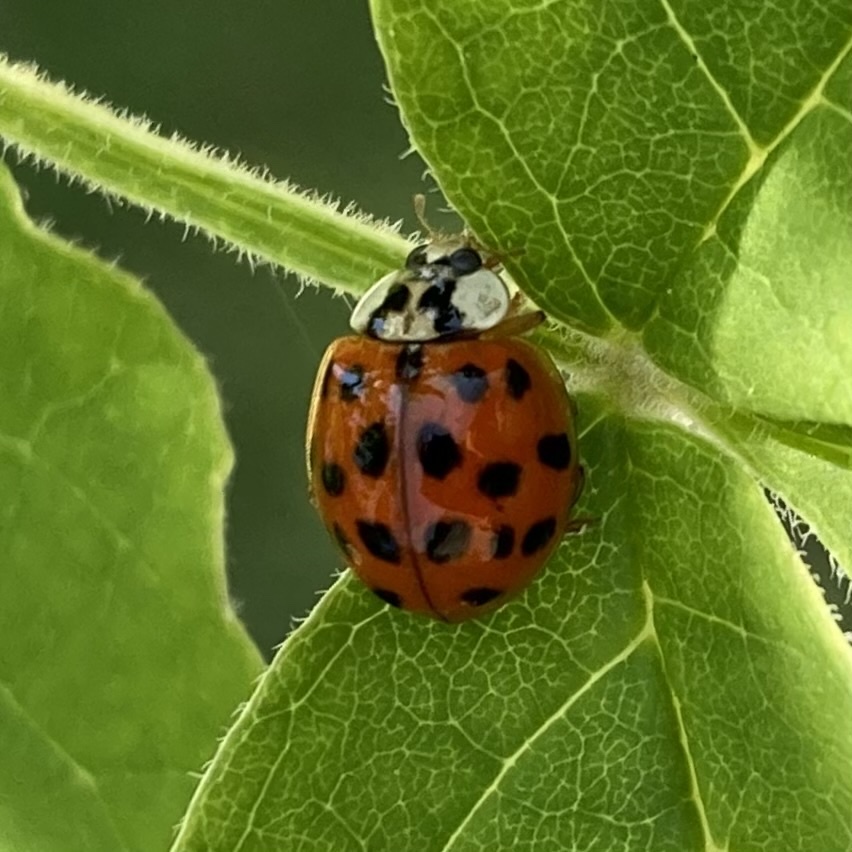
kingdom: Animalia
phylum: Arthropoda
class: Insecta
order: Coleoptera
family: Coccinellidae
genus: Harmonia
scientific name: Harmonia axyridis
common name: Harlequin ladybird
